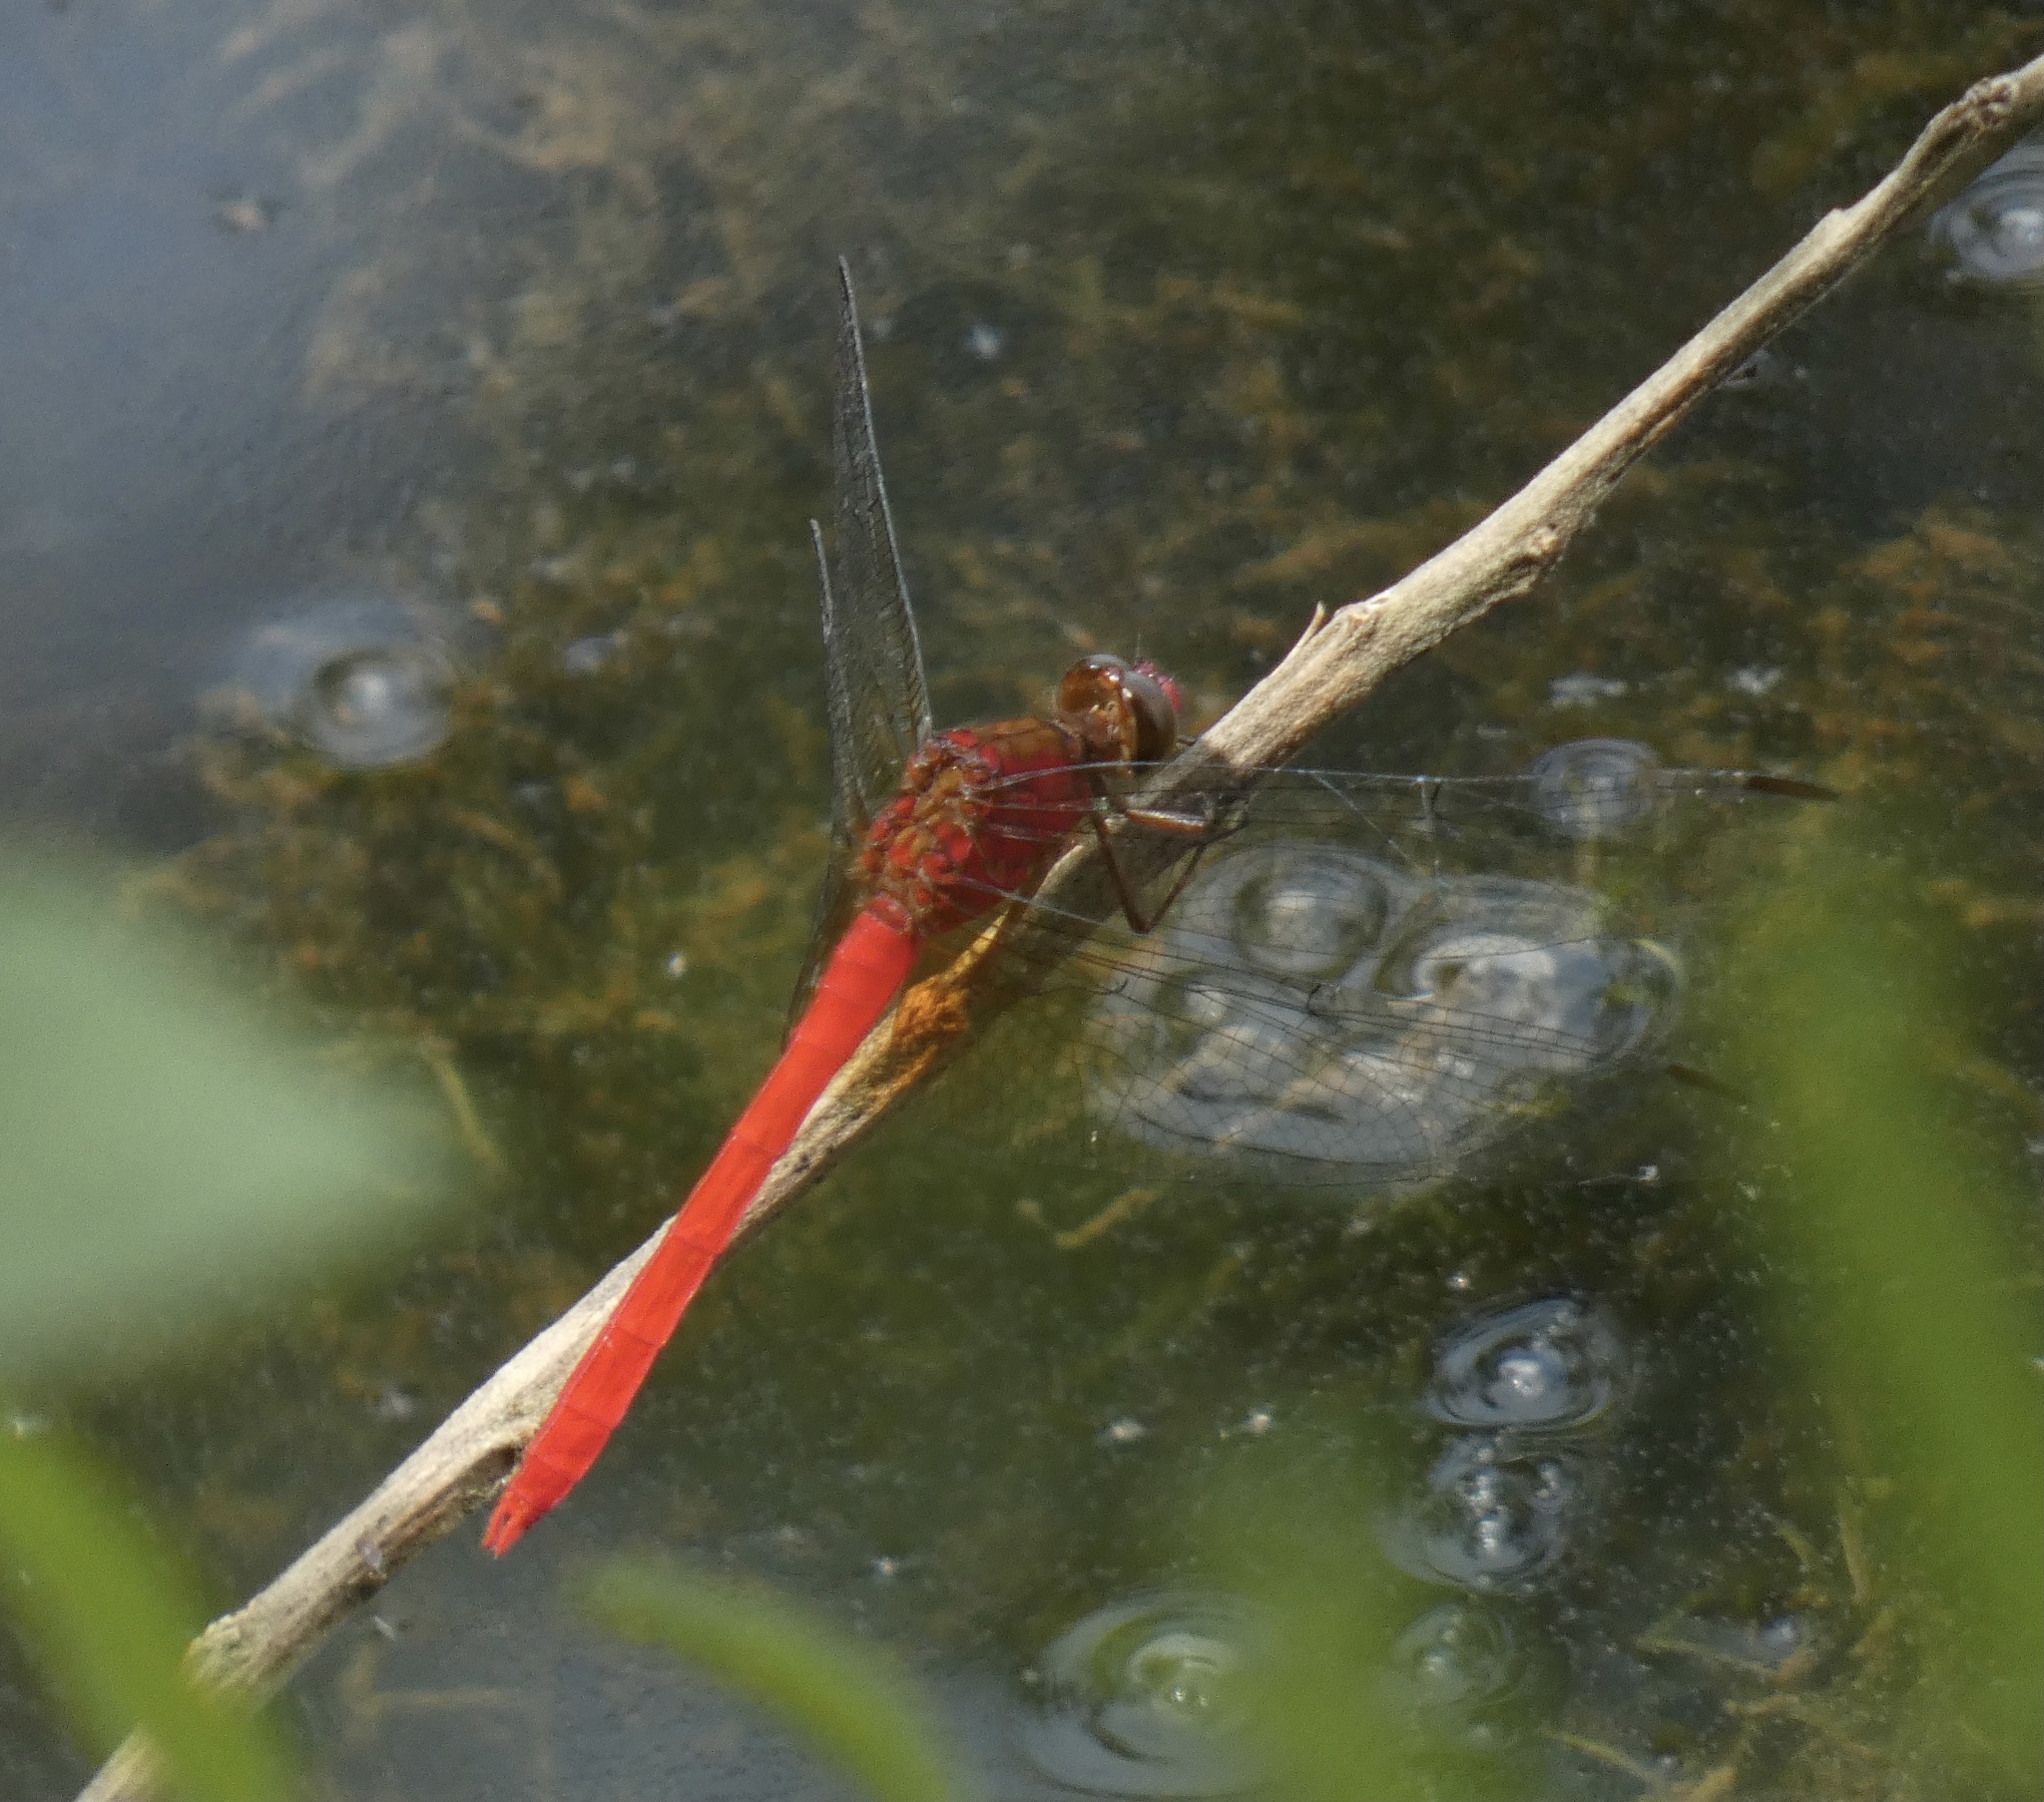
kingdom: Animalia
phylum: Arthropoda
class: Insecta
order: Odonata
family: Libellulidae
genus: Erythemis
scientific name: Erythemis mithroides
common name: Claret pondhawk
